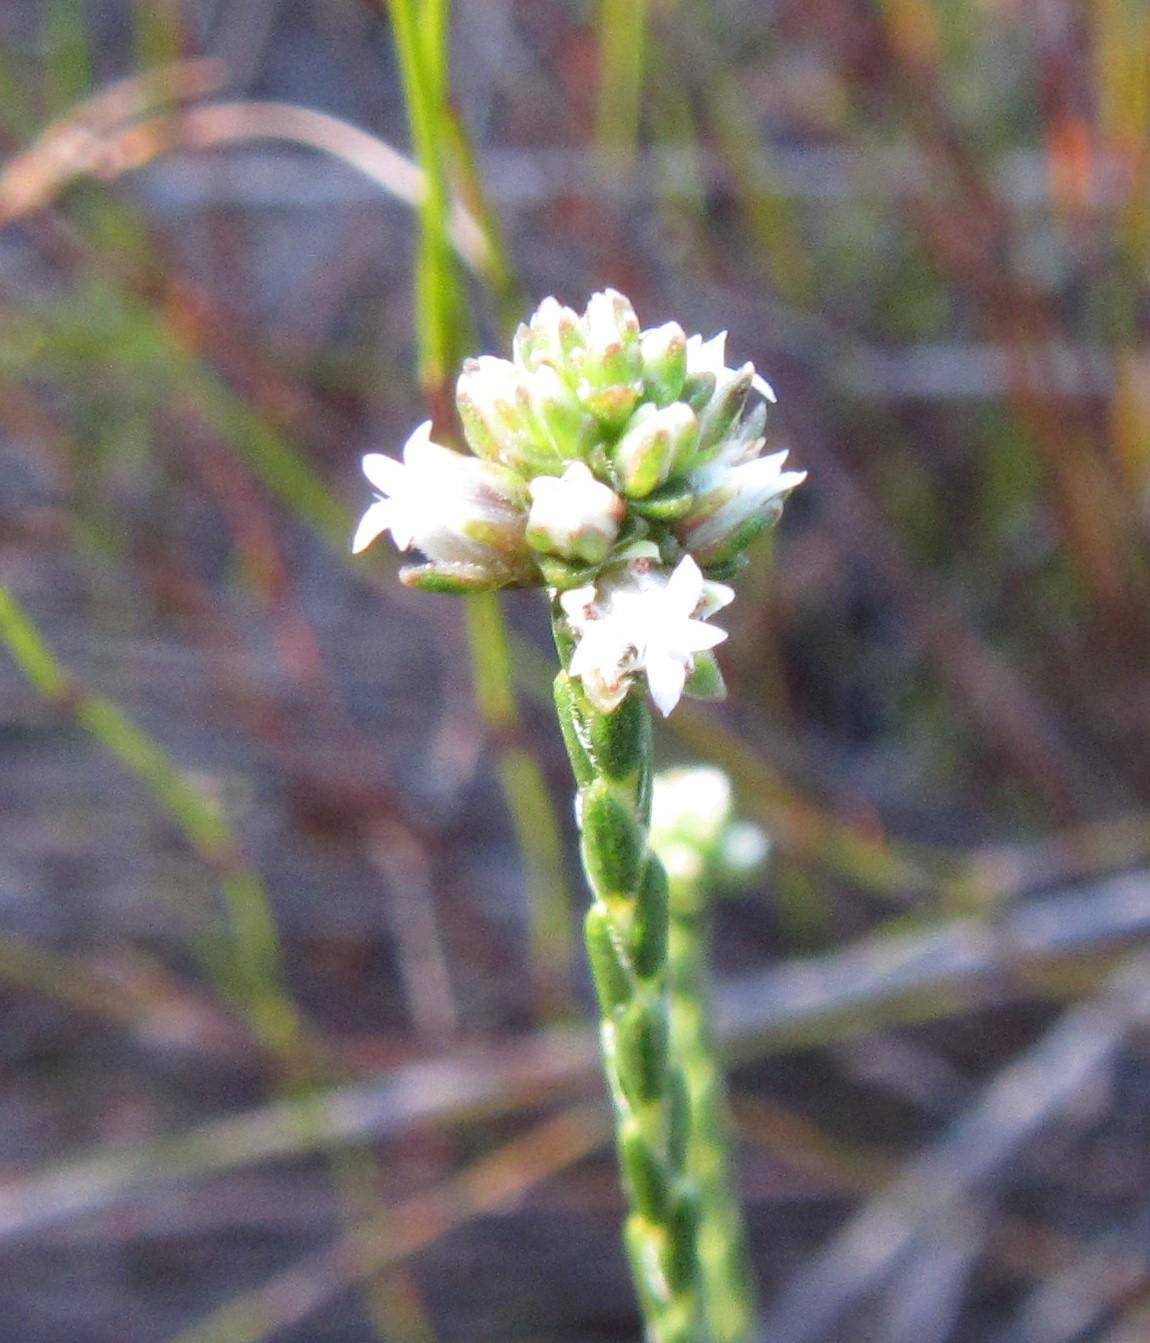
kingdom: Plantae
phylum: Tracheophyta
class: Magnoliopsida
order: Sapindales
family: Rutaceae
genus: Euchaetis
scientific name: Euchaetis glomerata
